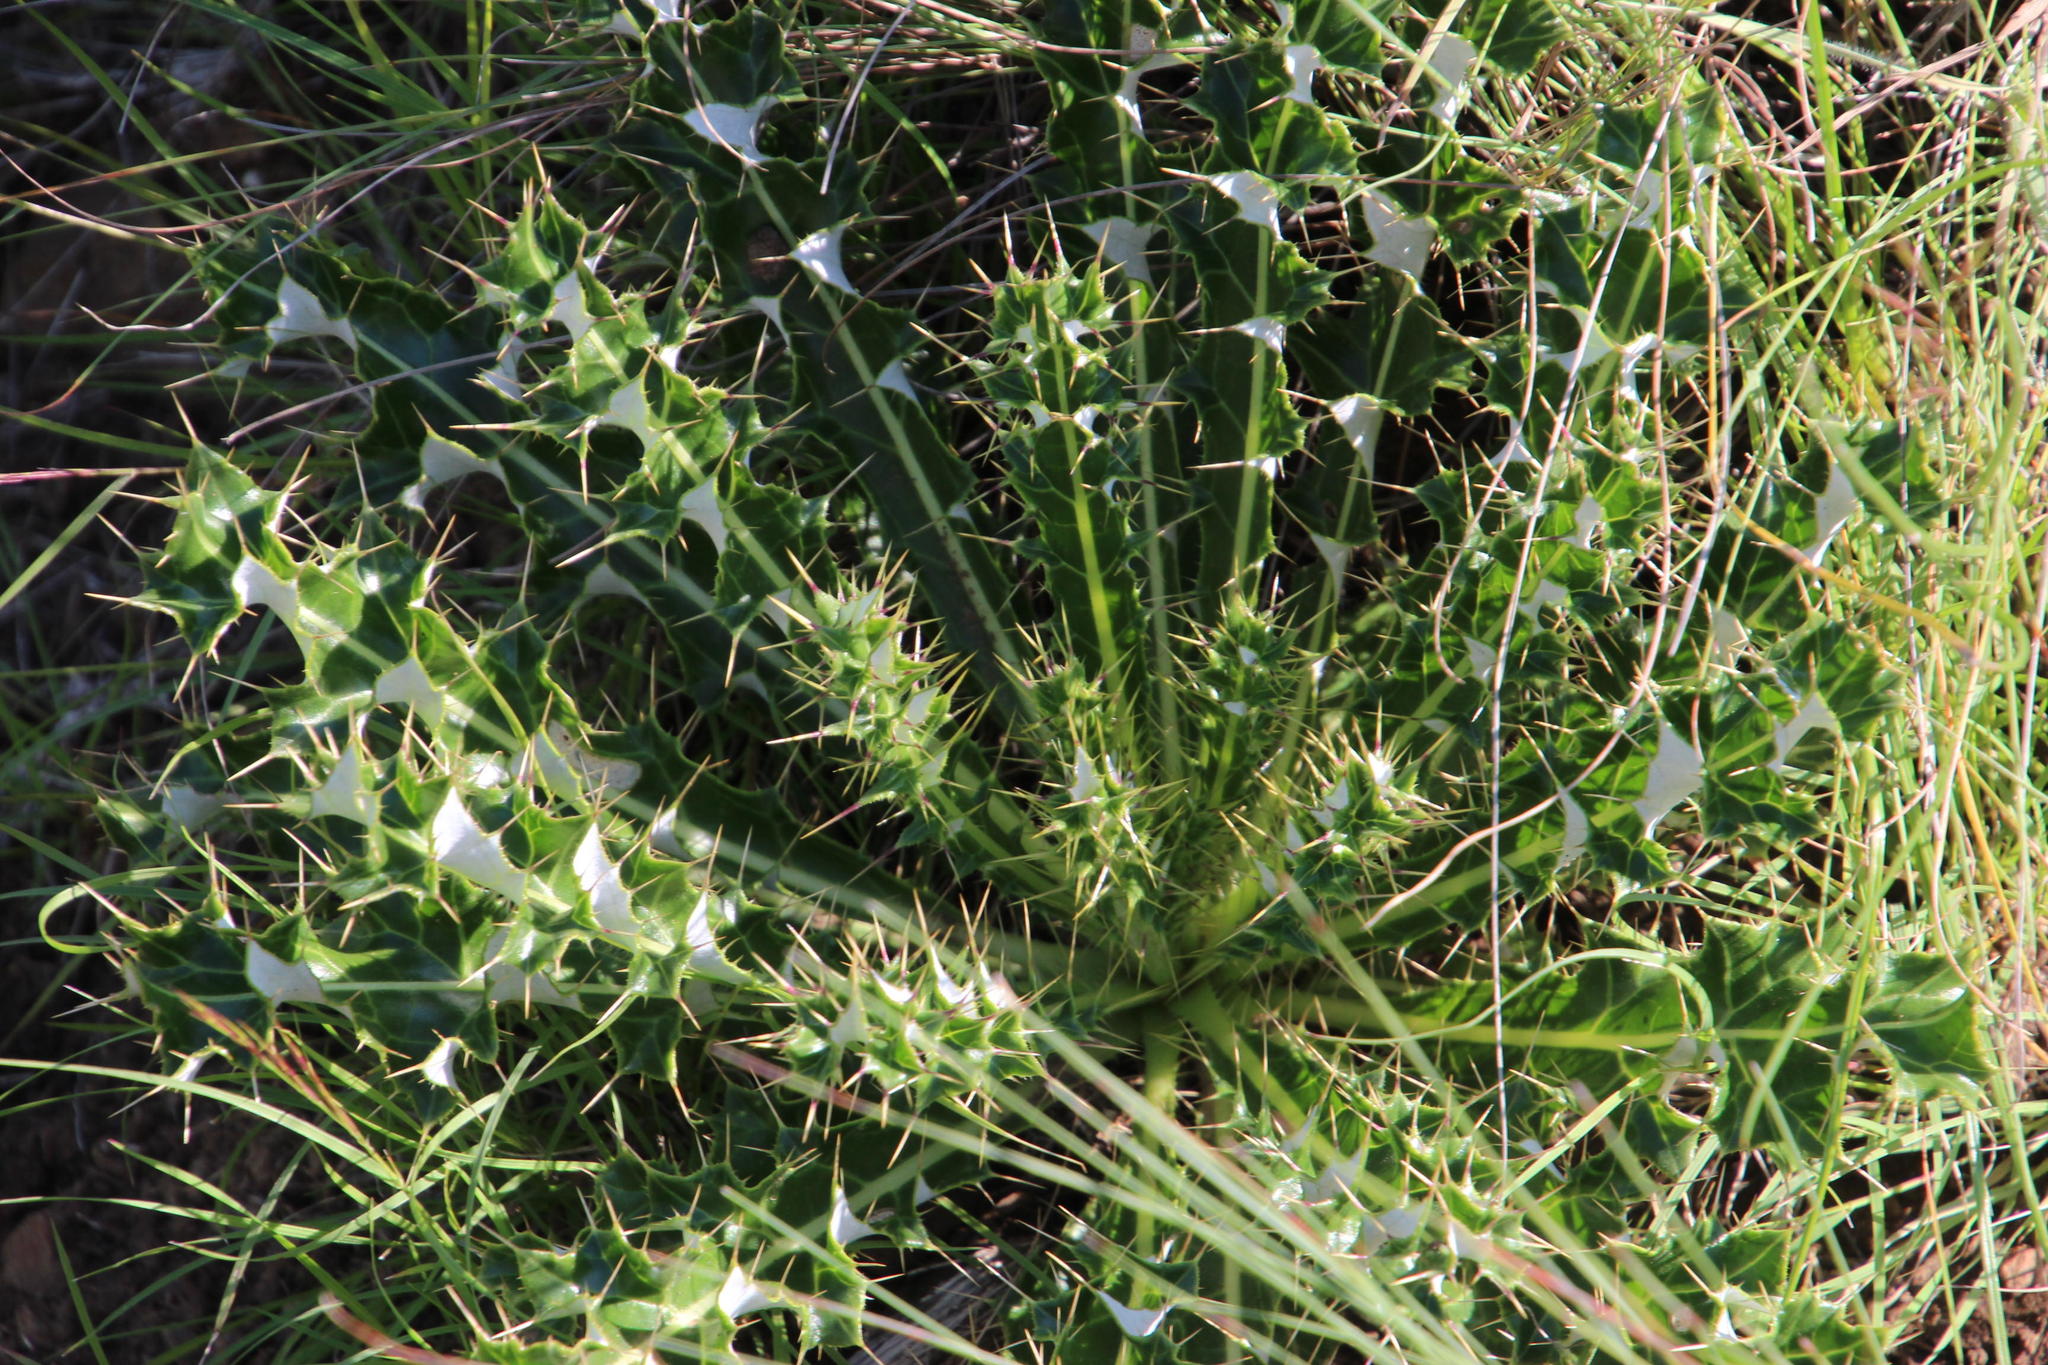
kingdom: Plantae
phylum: Tracheophyta
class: Magnoliopsida
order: Asterales
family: Asteraceae
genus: Berkheya
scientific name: Berkheya discolor
